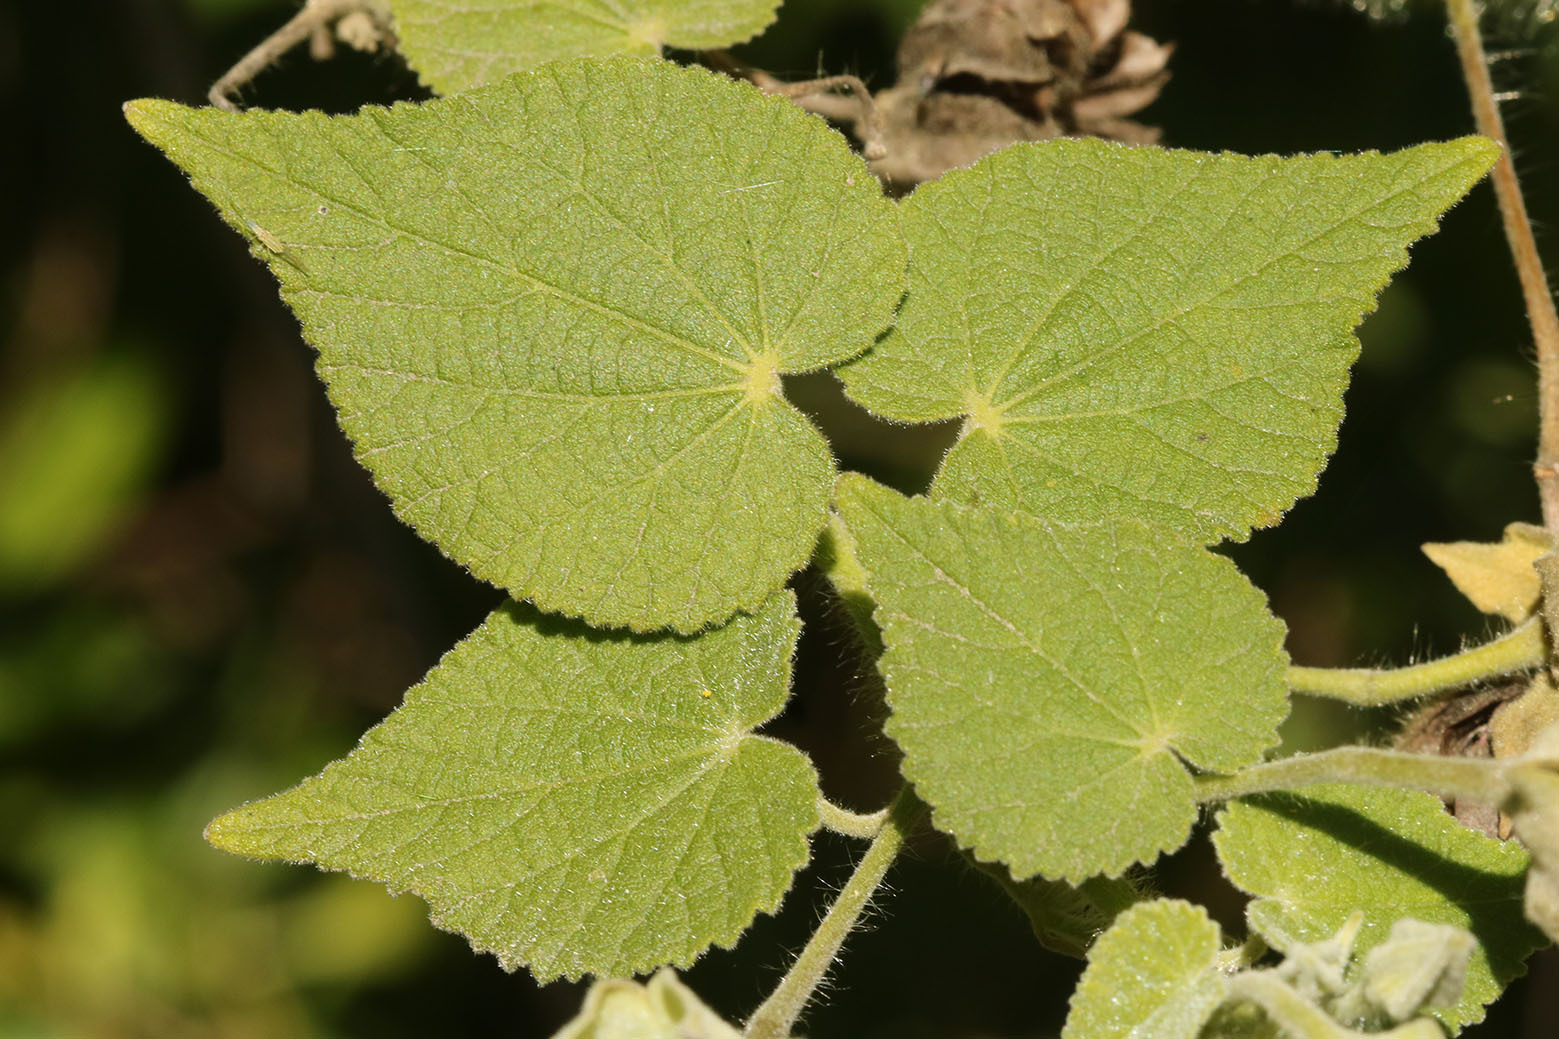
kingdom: Plantae
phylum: Tracheophyta
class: Magnoliopsida
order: Malvales
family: Malvaceae
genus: Abutilon
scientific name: Abutilon grandifolium
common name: Hairy abutilon
